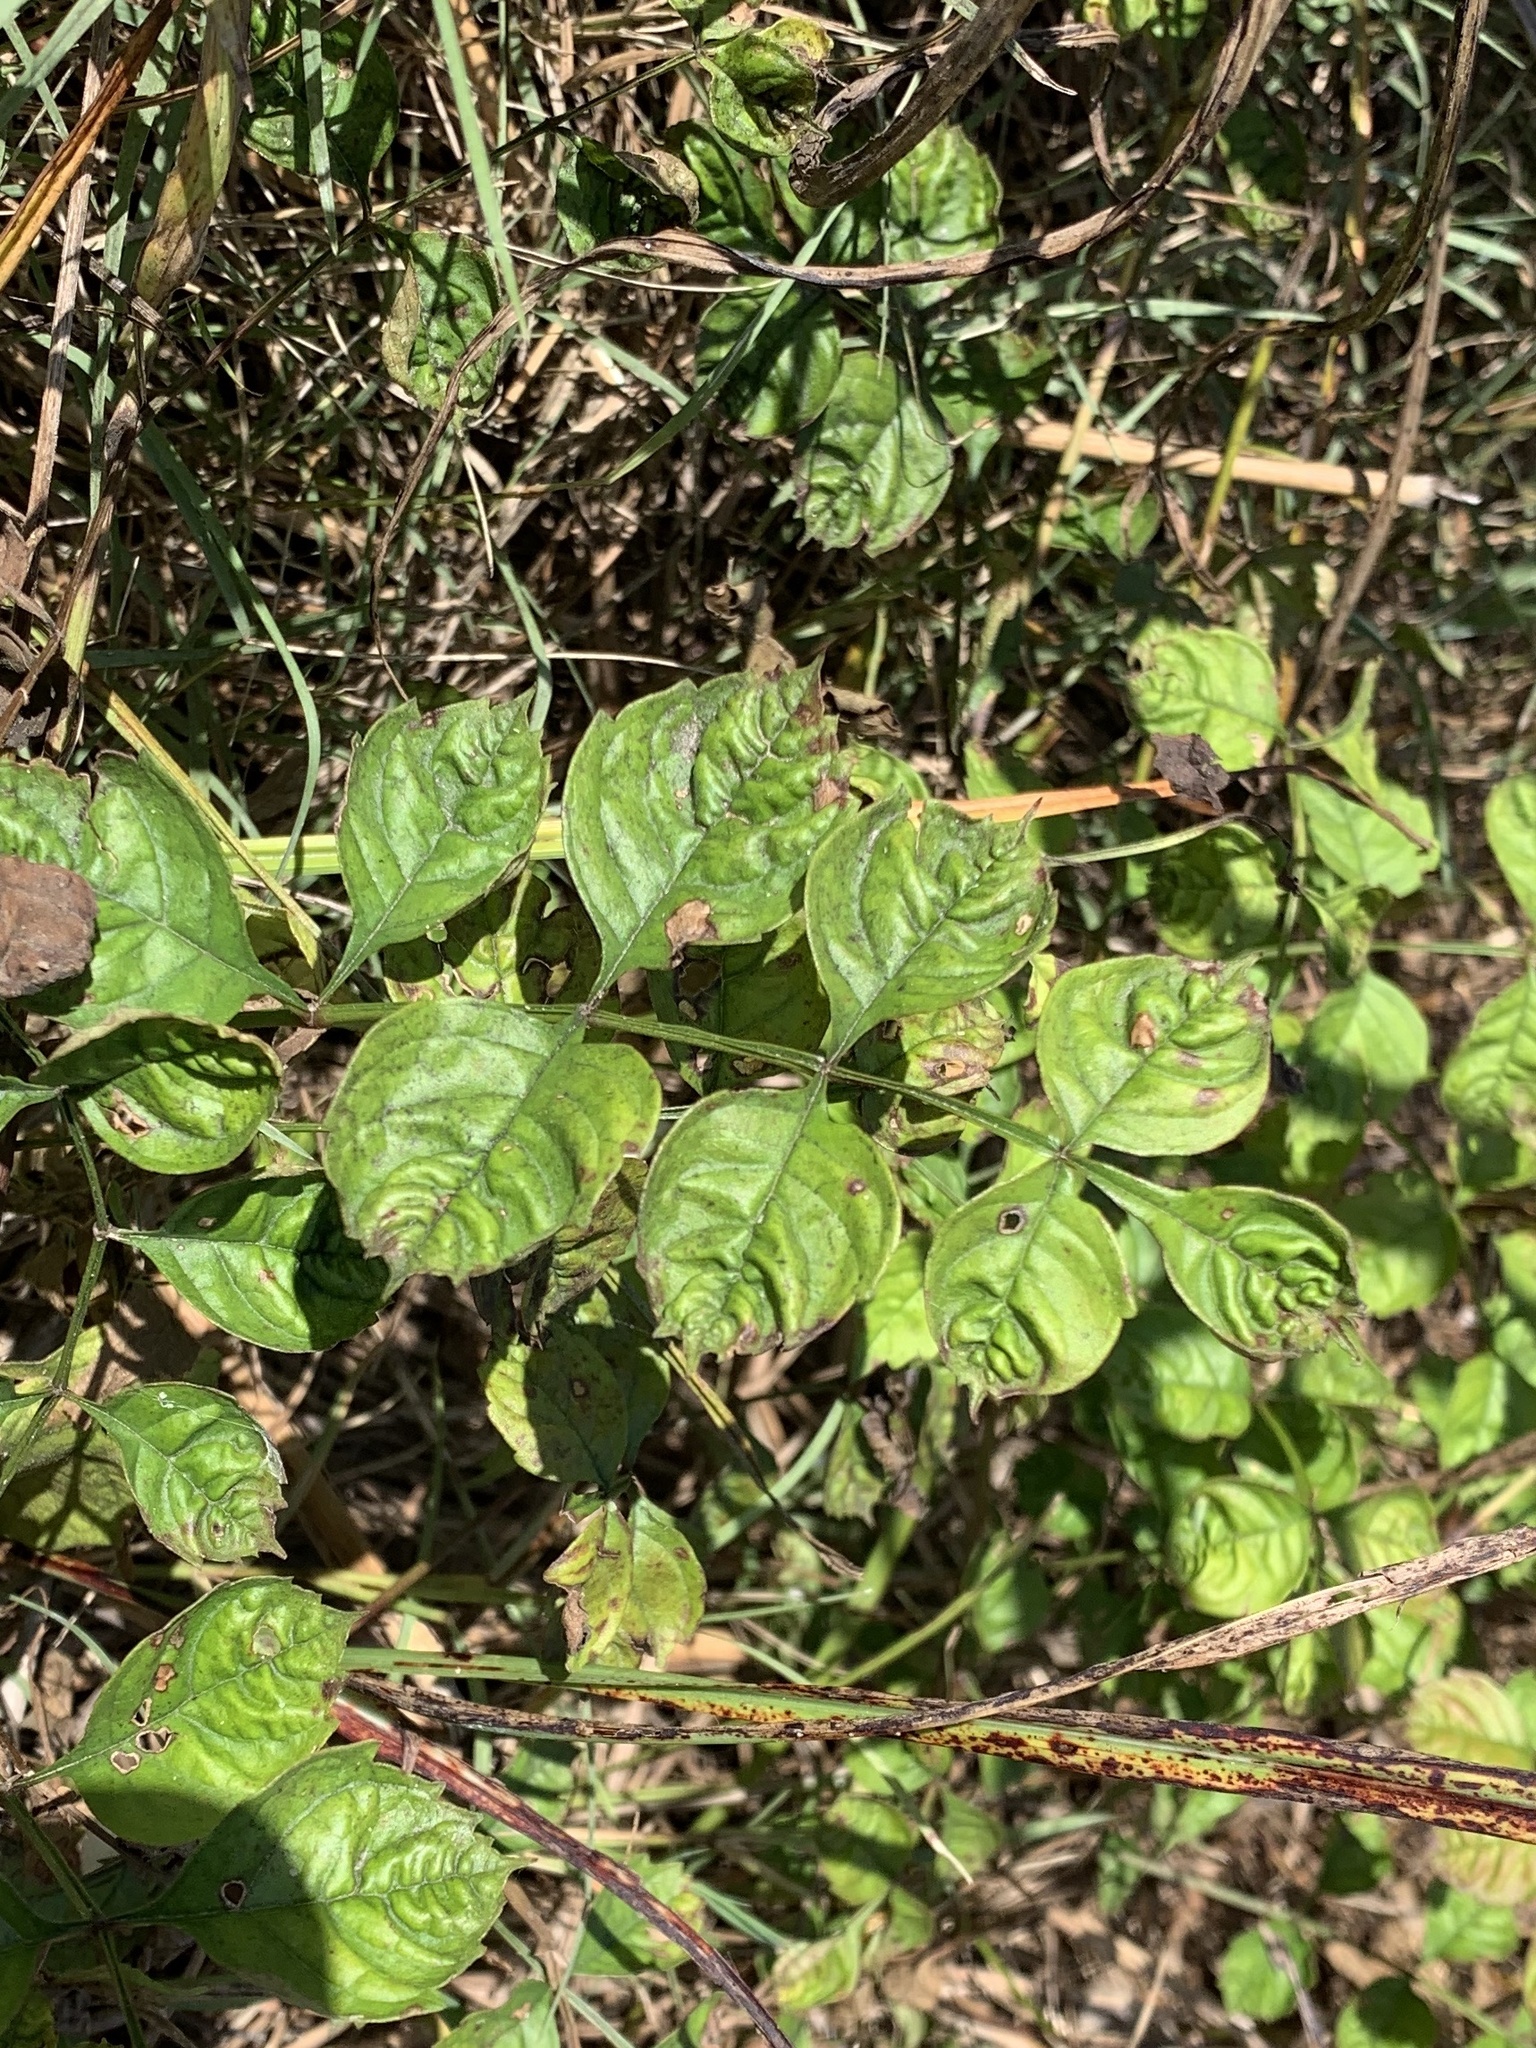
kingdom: Plantae
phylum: Tracheophyta
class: Magnoliopsida
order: Lamiales
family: Bignoniaceae
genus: Campsis
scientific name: Campsis radicans
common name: Trumpet-creeper
